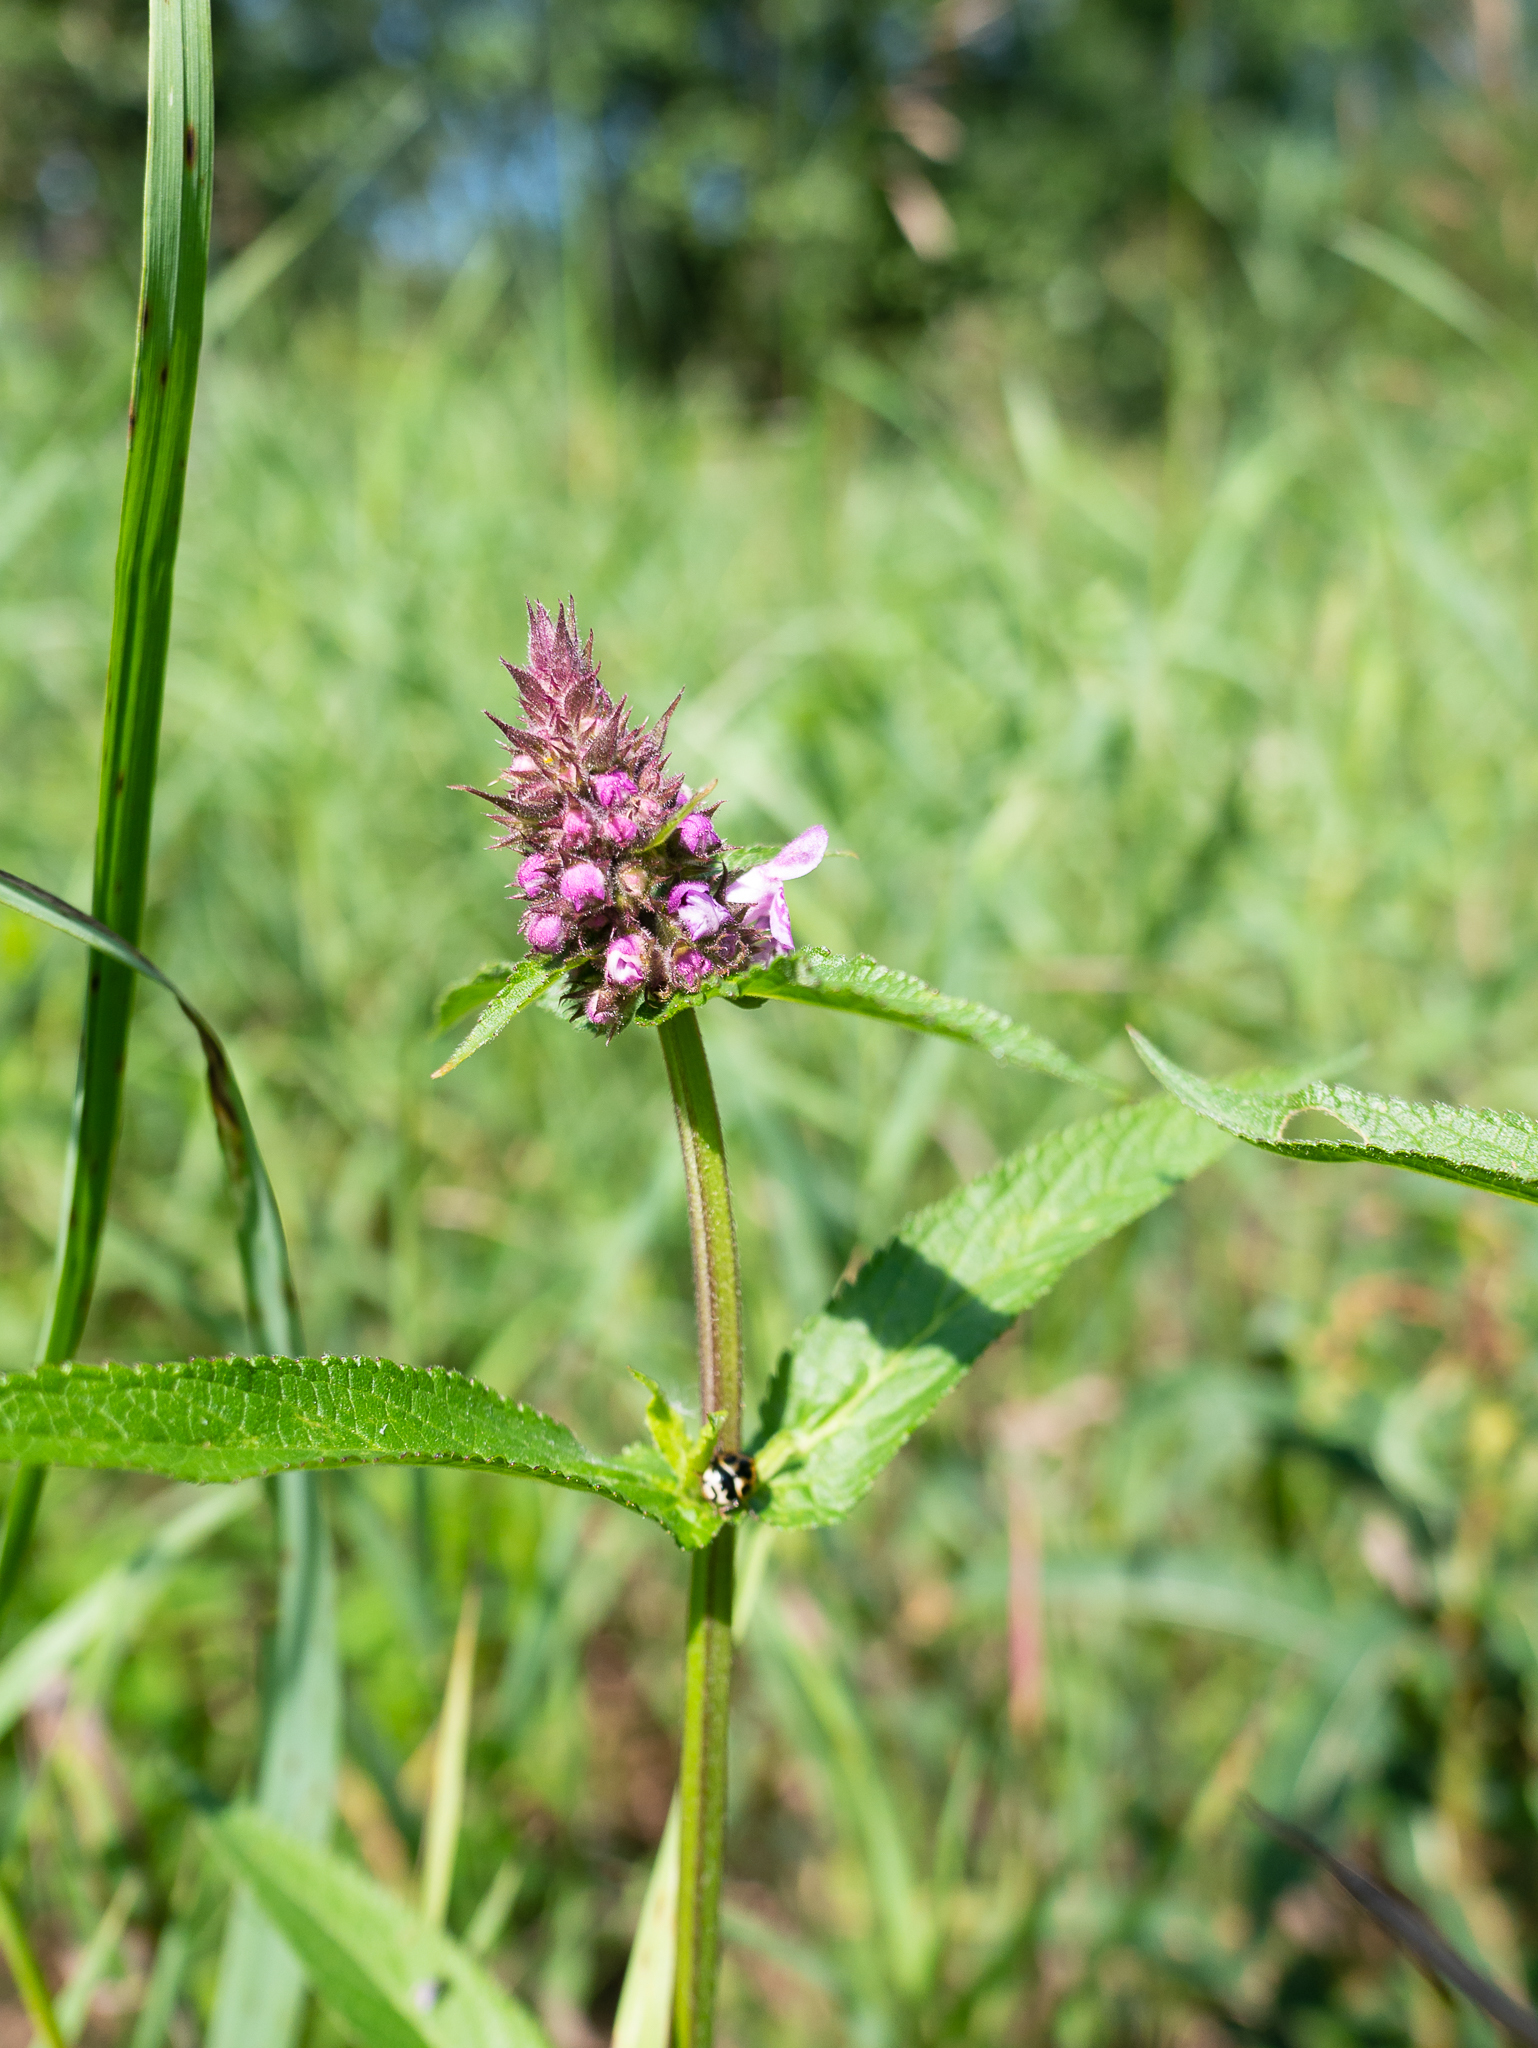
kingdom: Plantae
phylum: Tracheophyta
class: Magnoliopsida
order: Lamiales
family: Lamiaceae
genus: Stachys
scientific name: Stachys palustris
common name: Marsh woundwort
